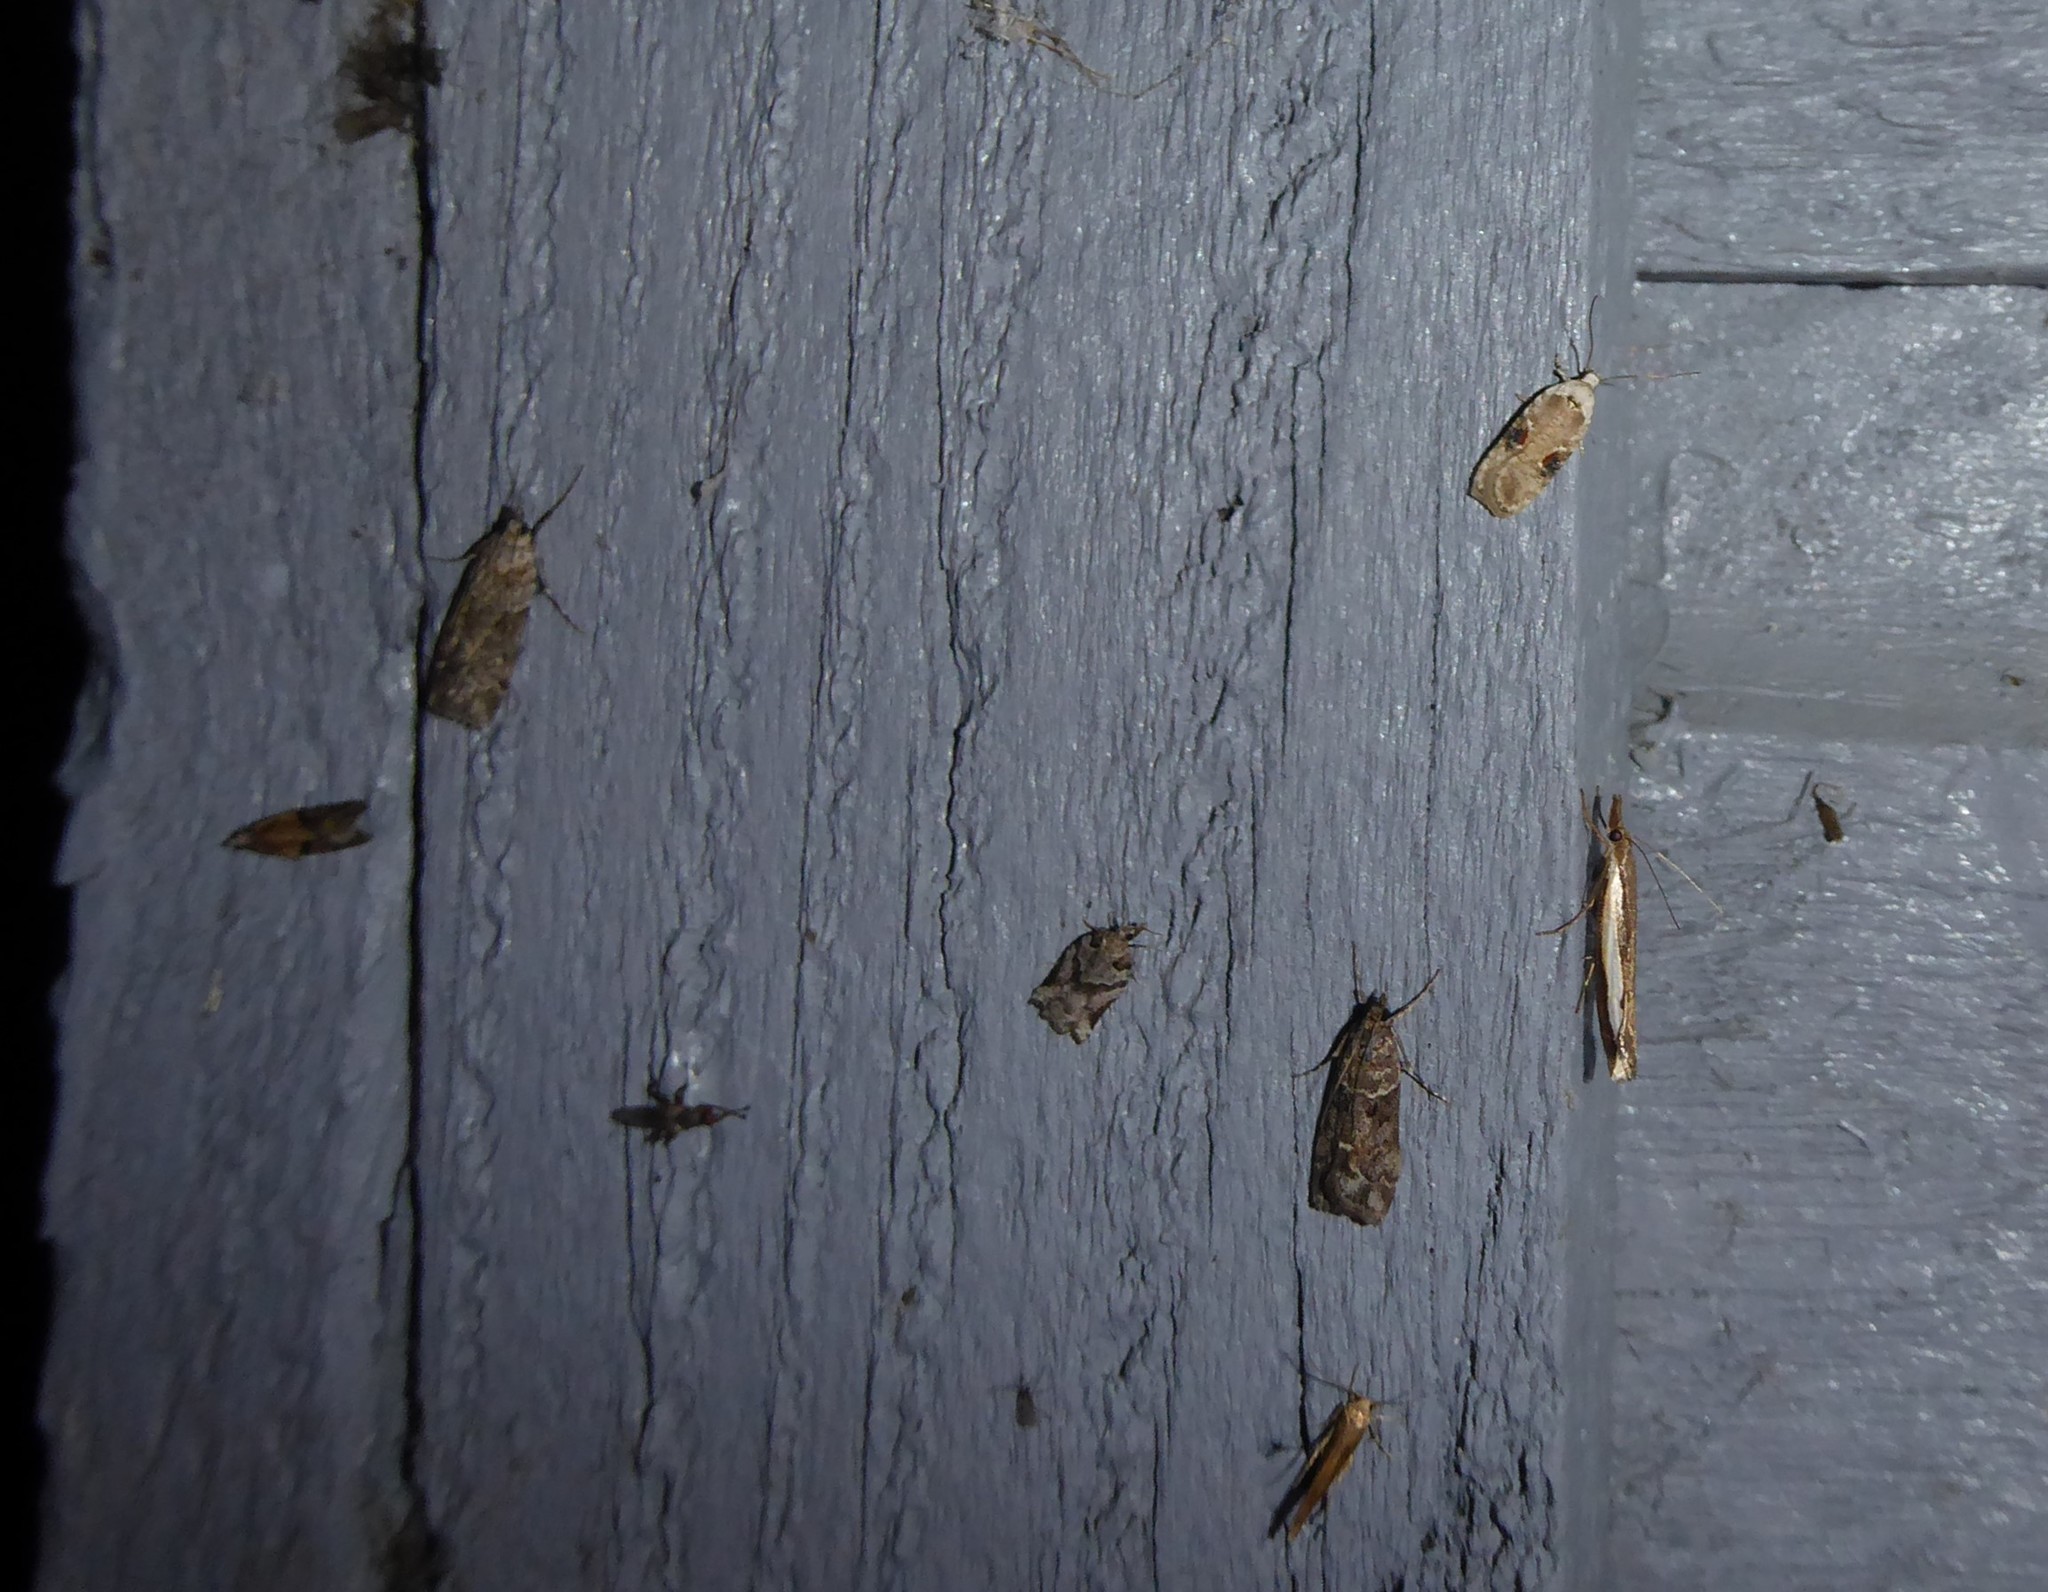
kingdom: Animalia
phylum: Arthropoda
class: Insecta
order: Lepidoptera
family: Tortricidae
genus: Harmologa
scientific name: Harmologa amplexana
